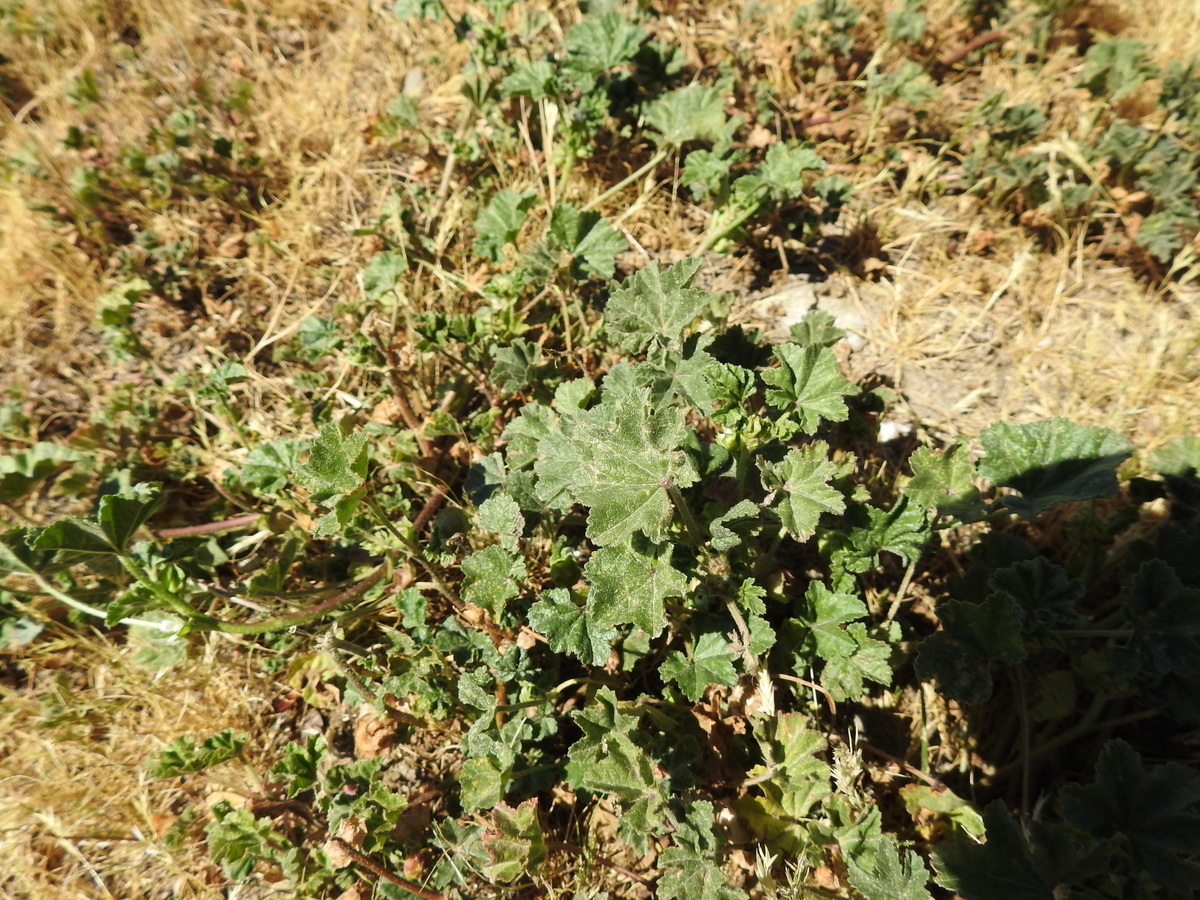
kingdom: Plantae
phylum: Tracheophyta
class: Magnoliopsida
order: Malvales
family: Malvaceae
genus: Malva
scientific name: Malva parviflora
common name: Least mallow
